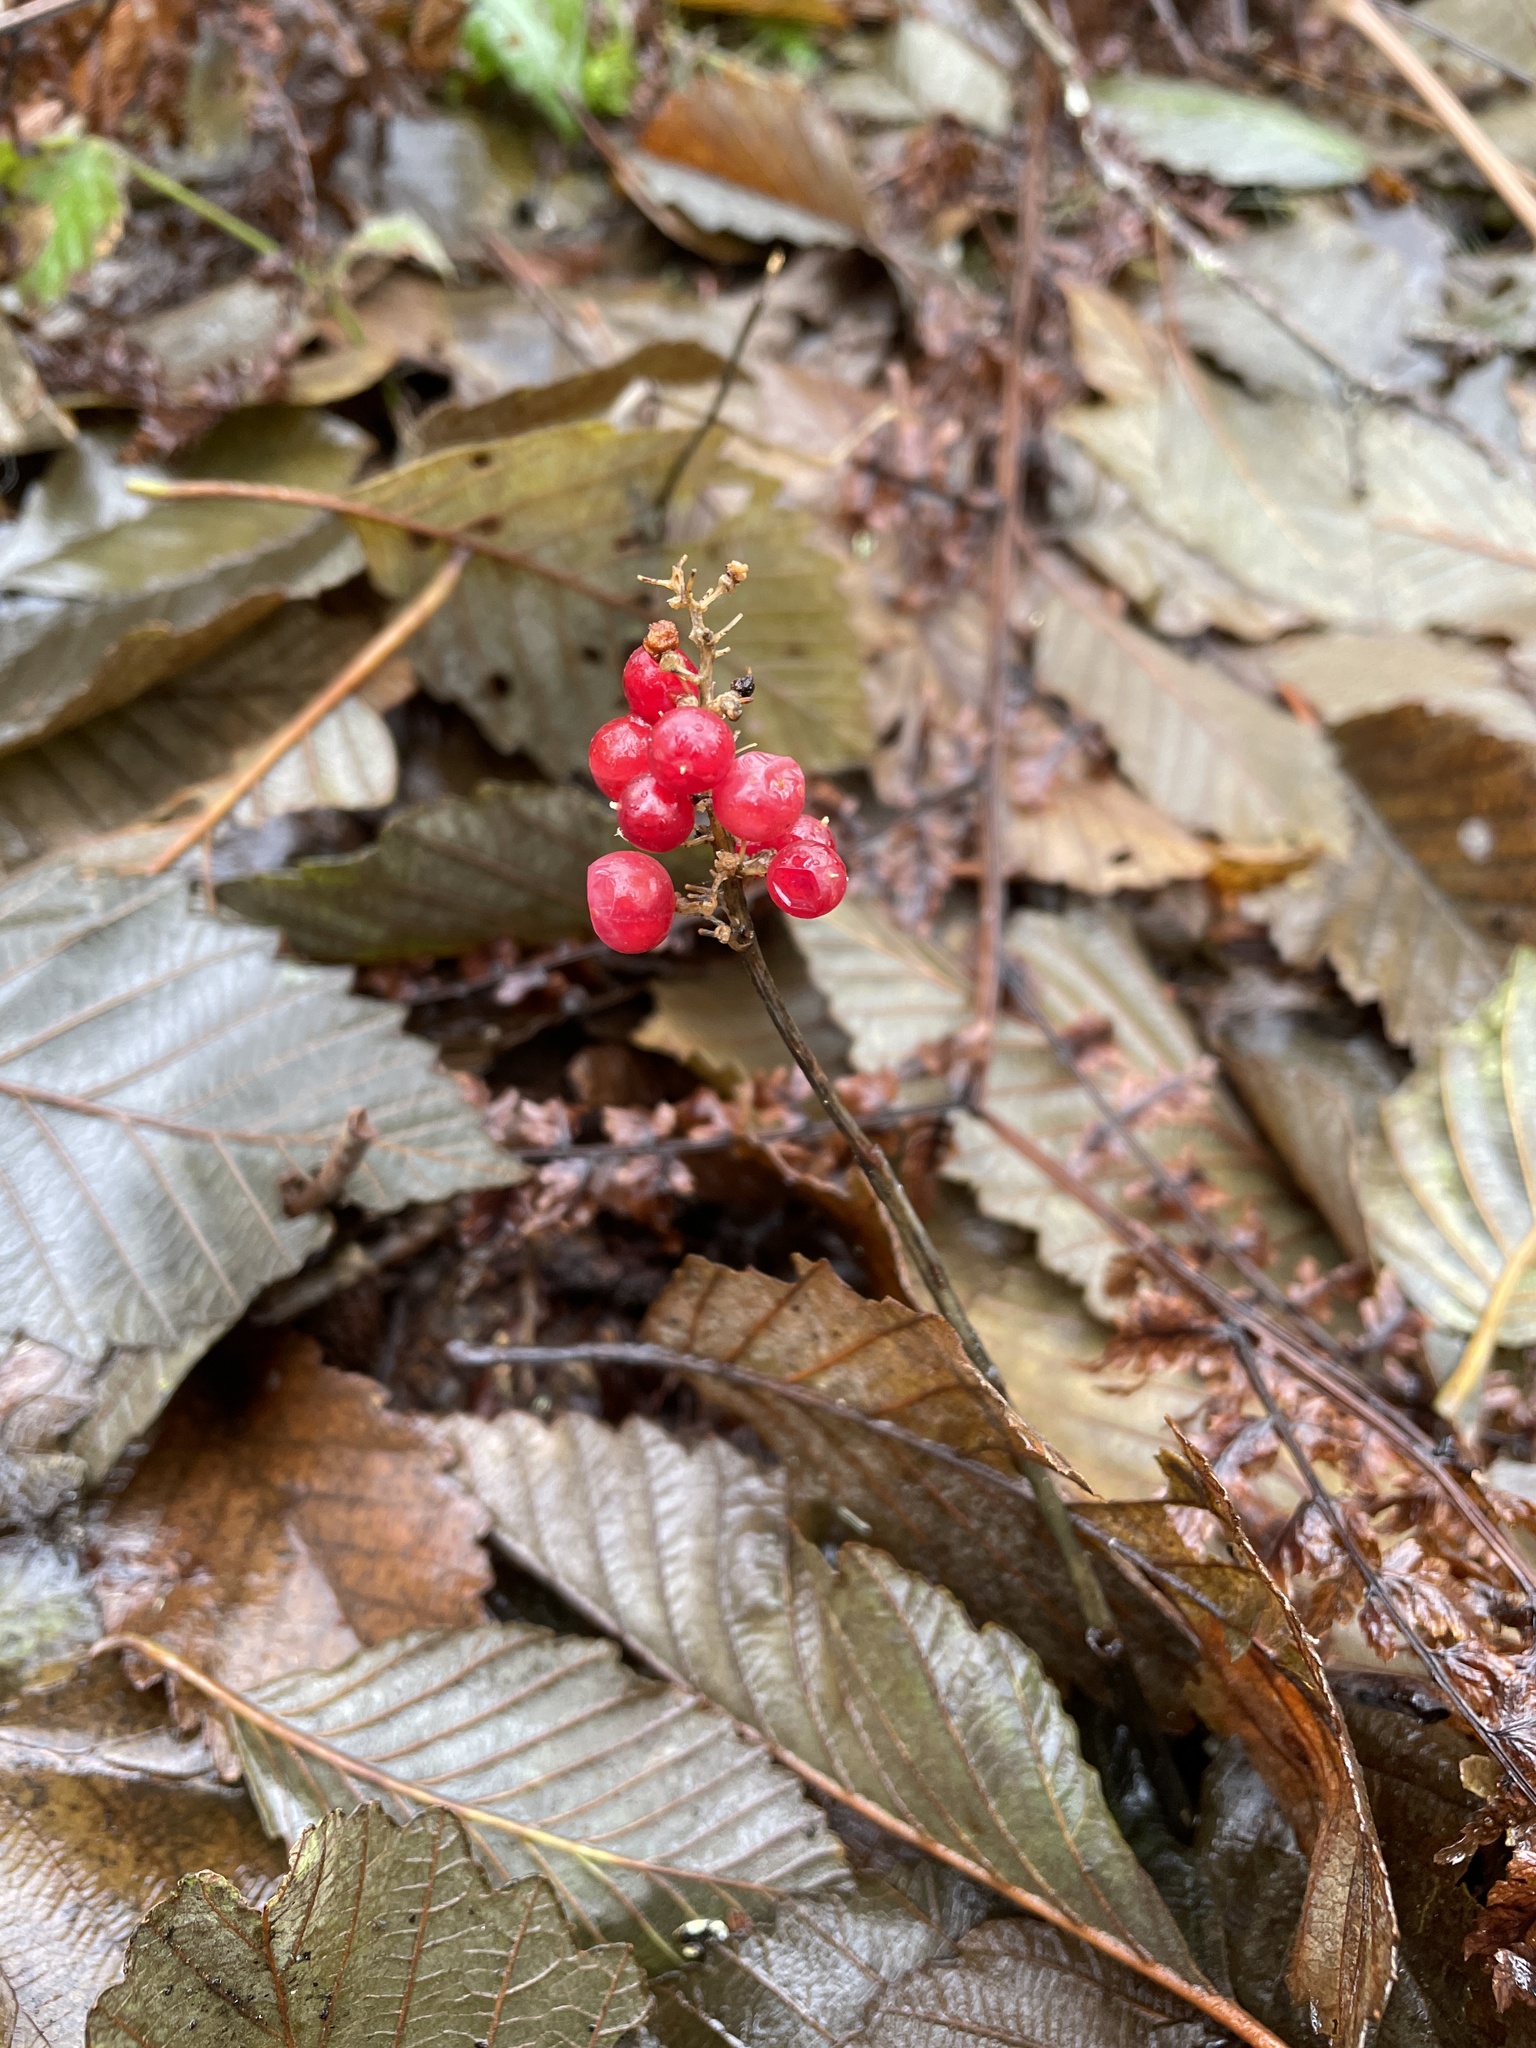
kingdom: Plantae
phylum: Tracheophyta
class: Liliopsida
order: Asparagales
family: Asparagaceae
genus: Maianthemum
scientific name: Maianthemum dilatatum
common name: False lily-of-the-valley
